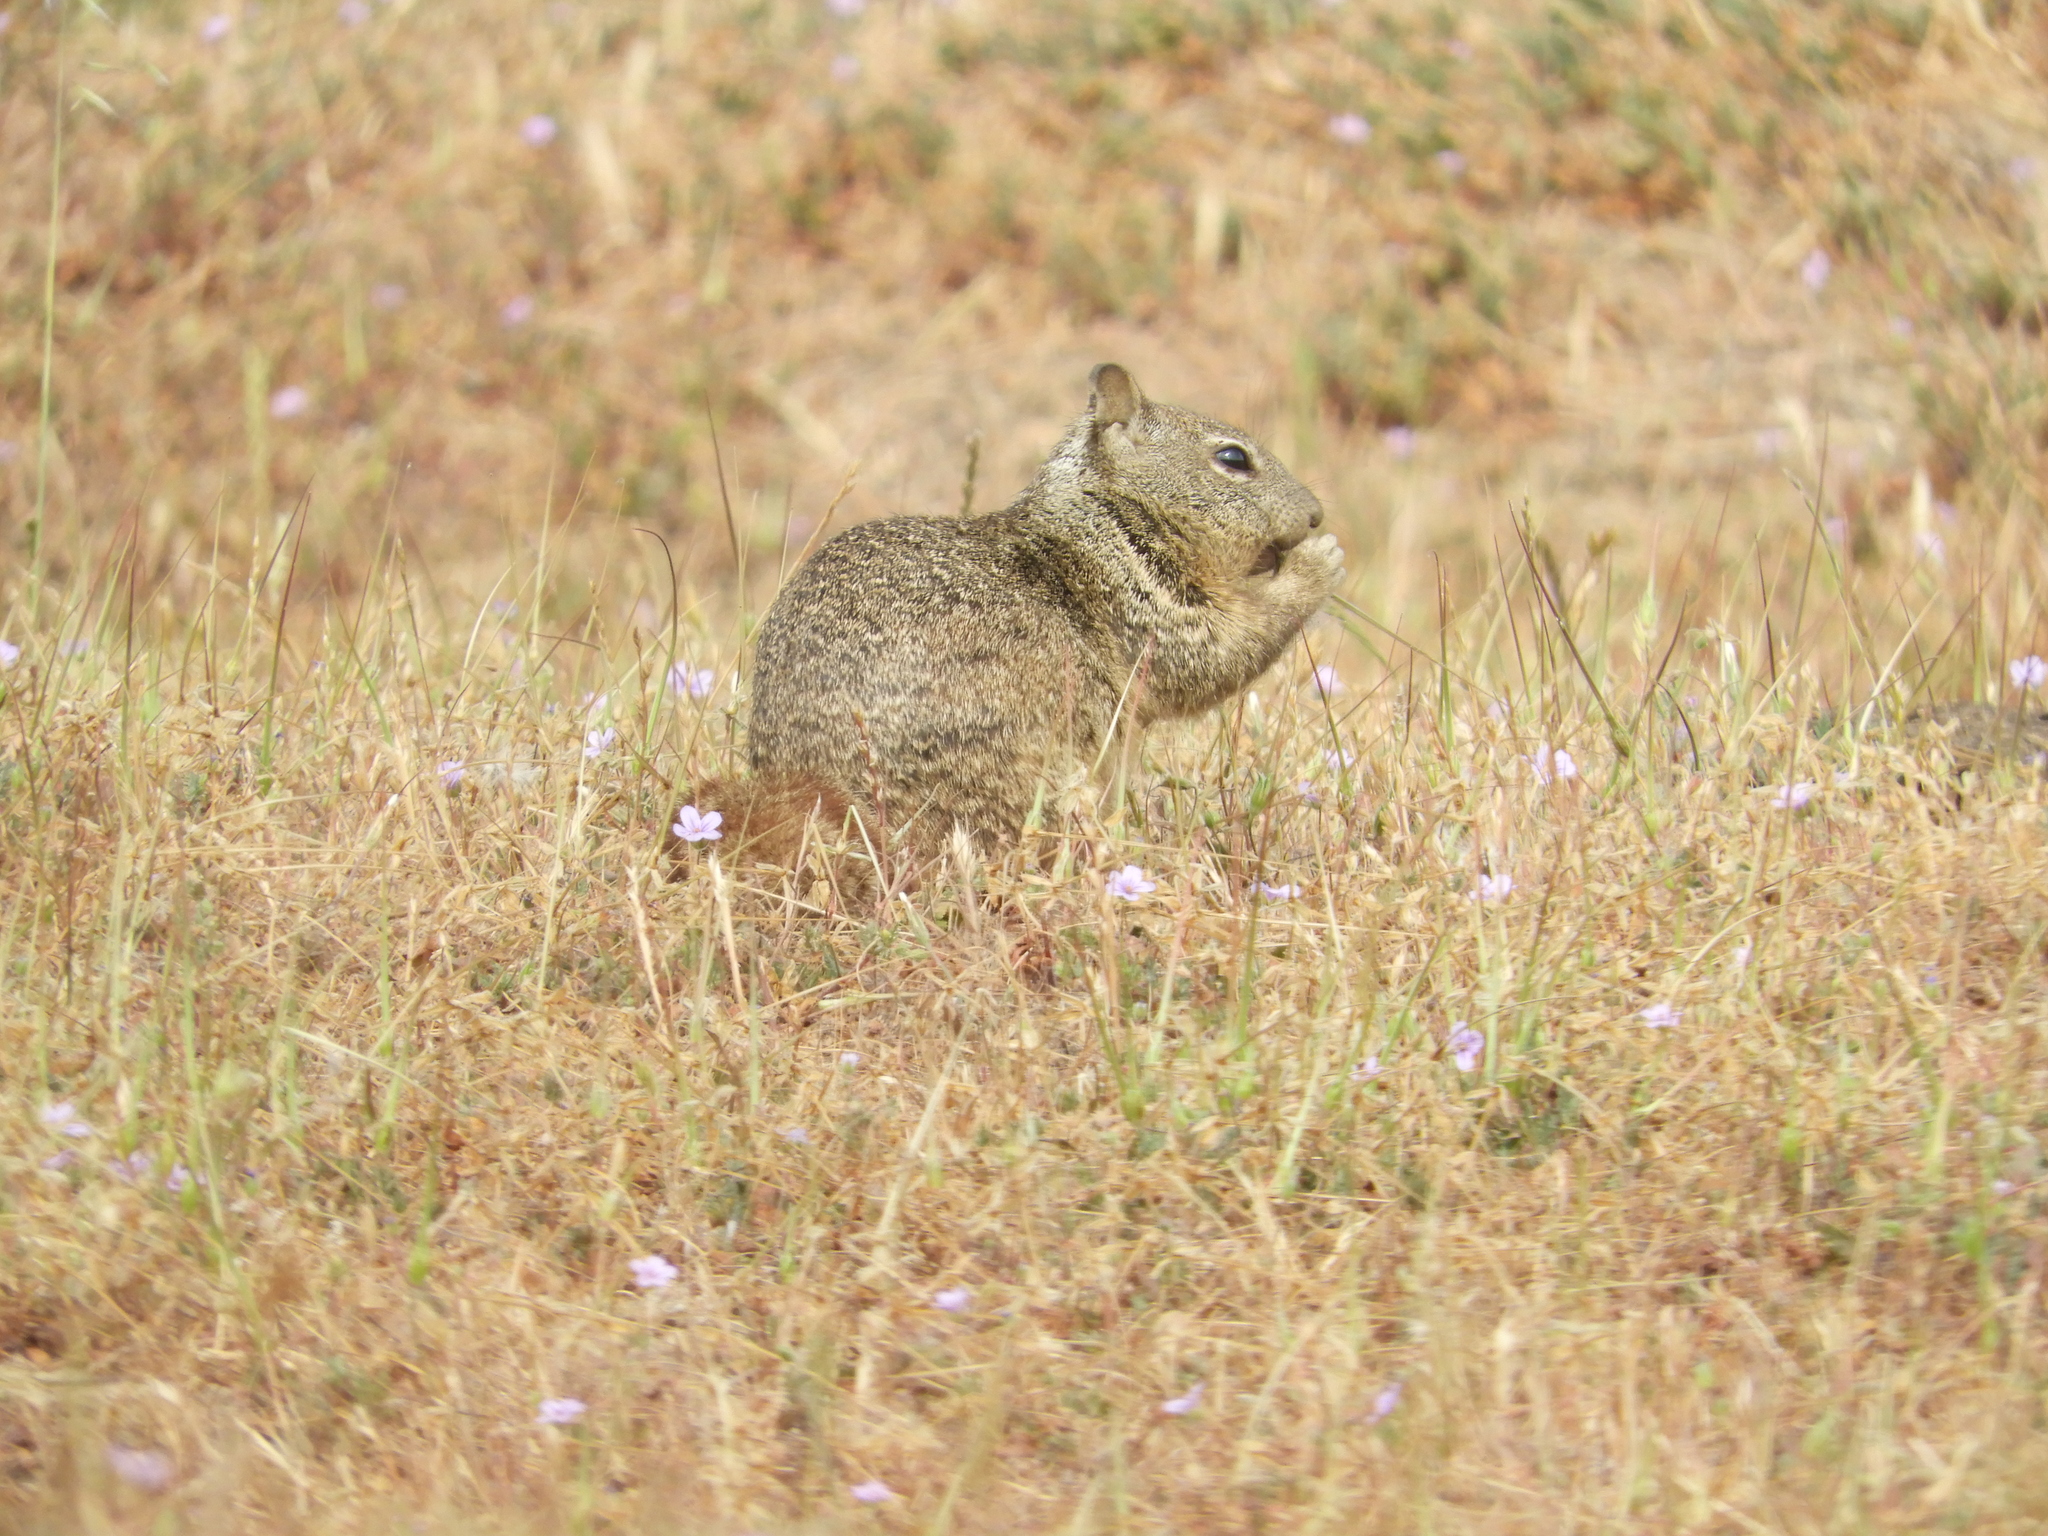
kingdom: Animalia
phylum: Chordata
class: Mammalia
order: Rodentia
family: Sciuridae
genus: Otospermophilus
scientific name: Otospermophilus beecheyi
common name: California ground squirrel
